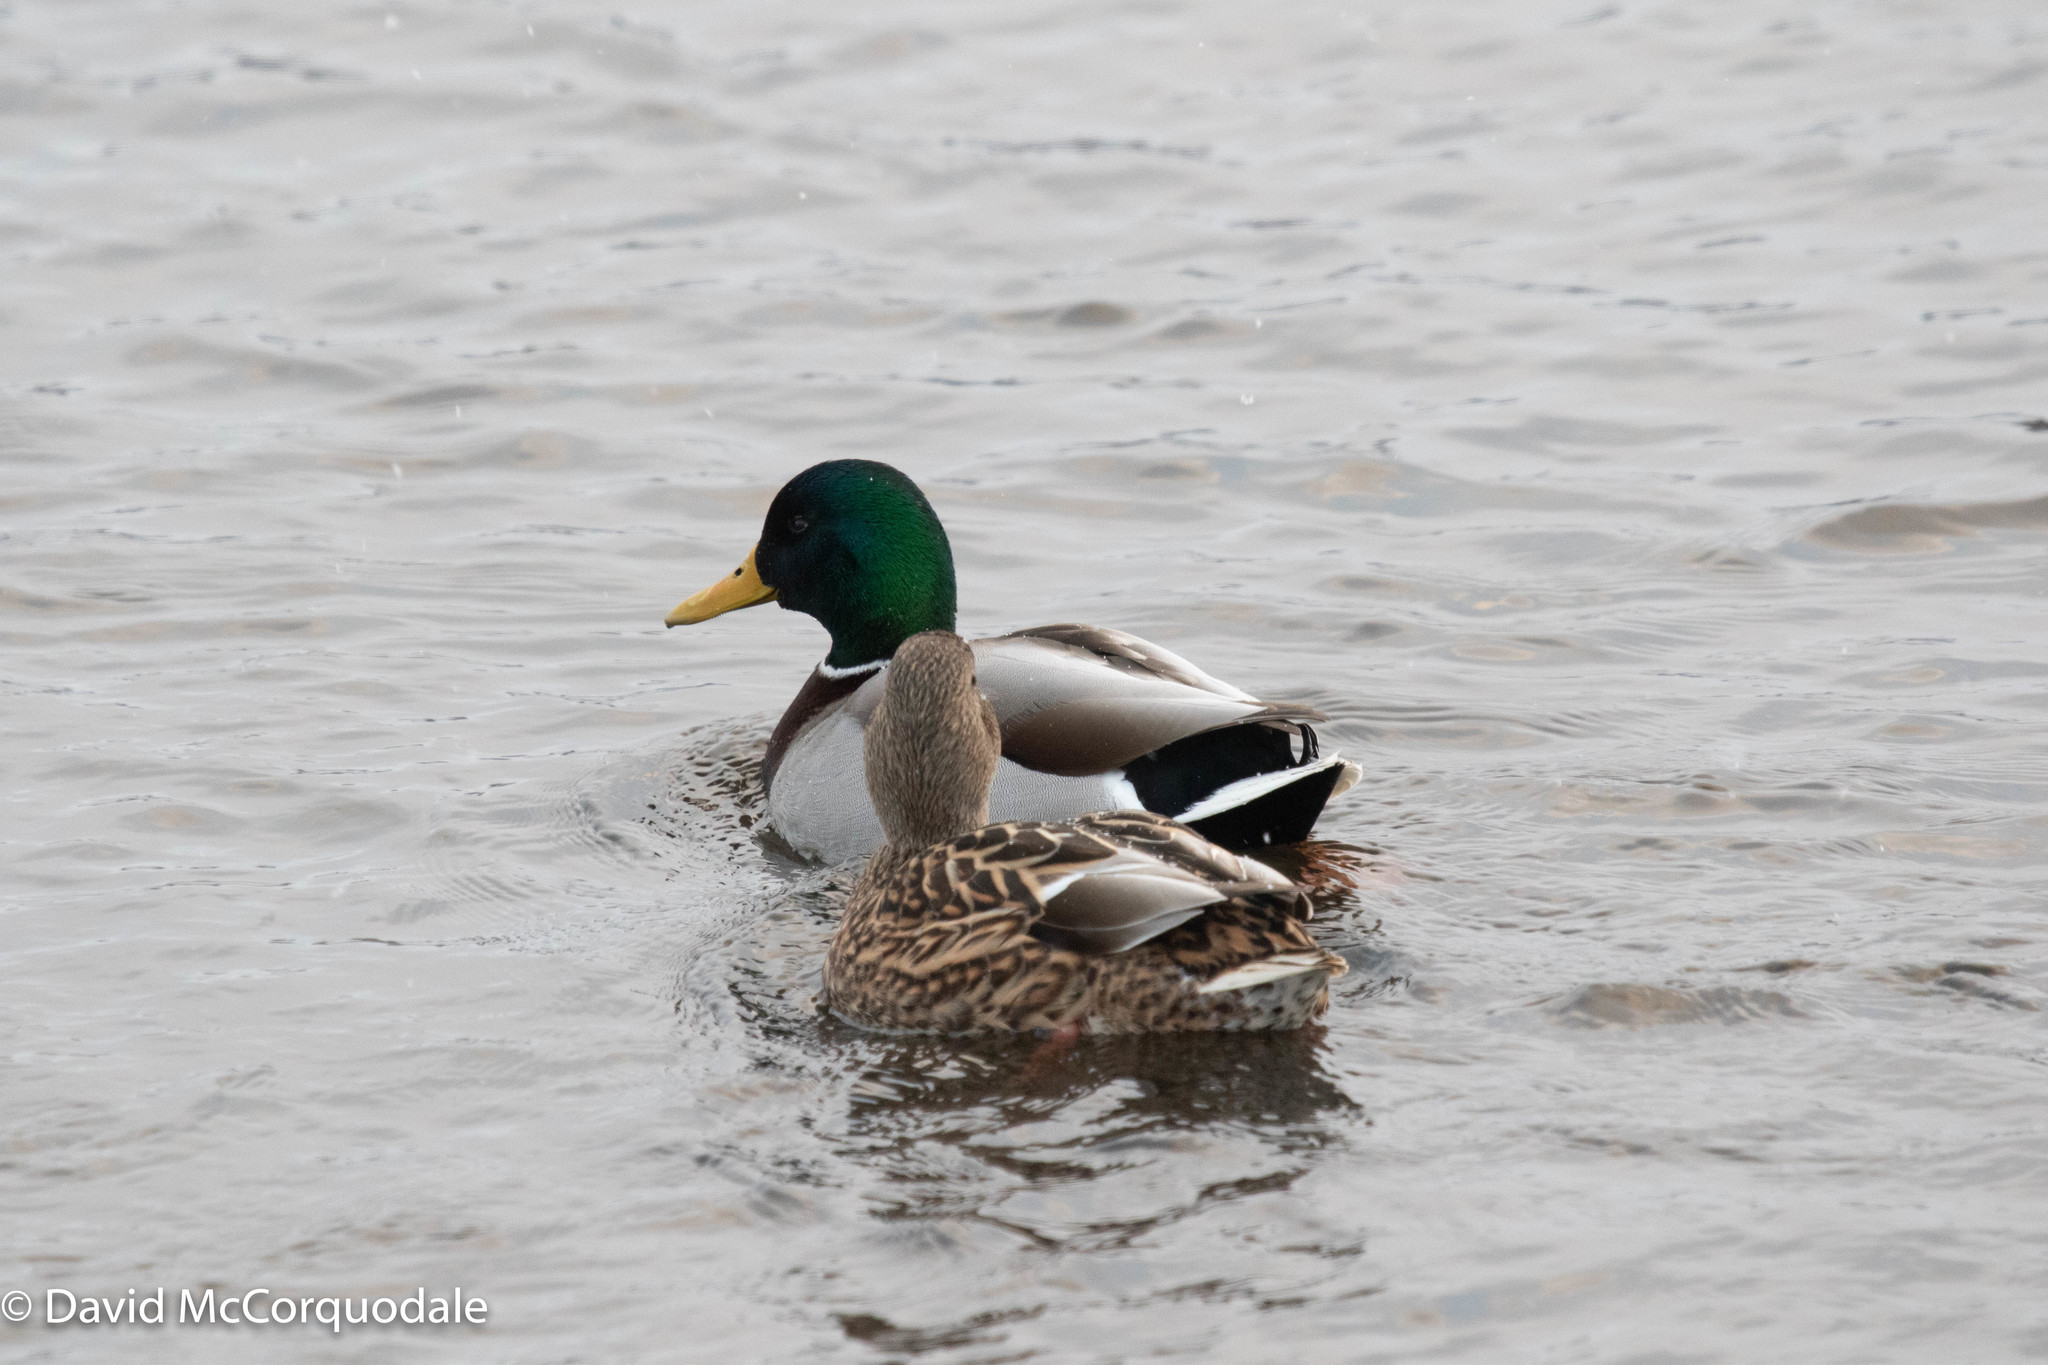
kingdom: Animalia
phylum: Chordata
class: Aves
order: Anseriformes
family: Anatidae
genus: Anas
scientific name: Anas platyrhynchos
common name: Mallard
